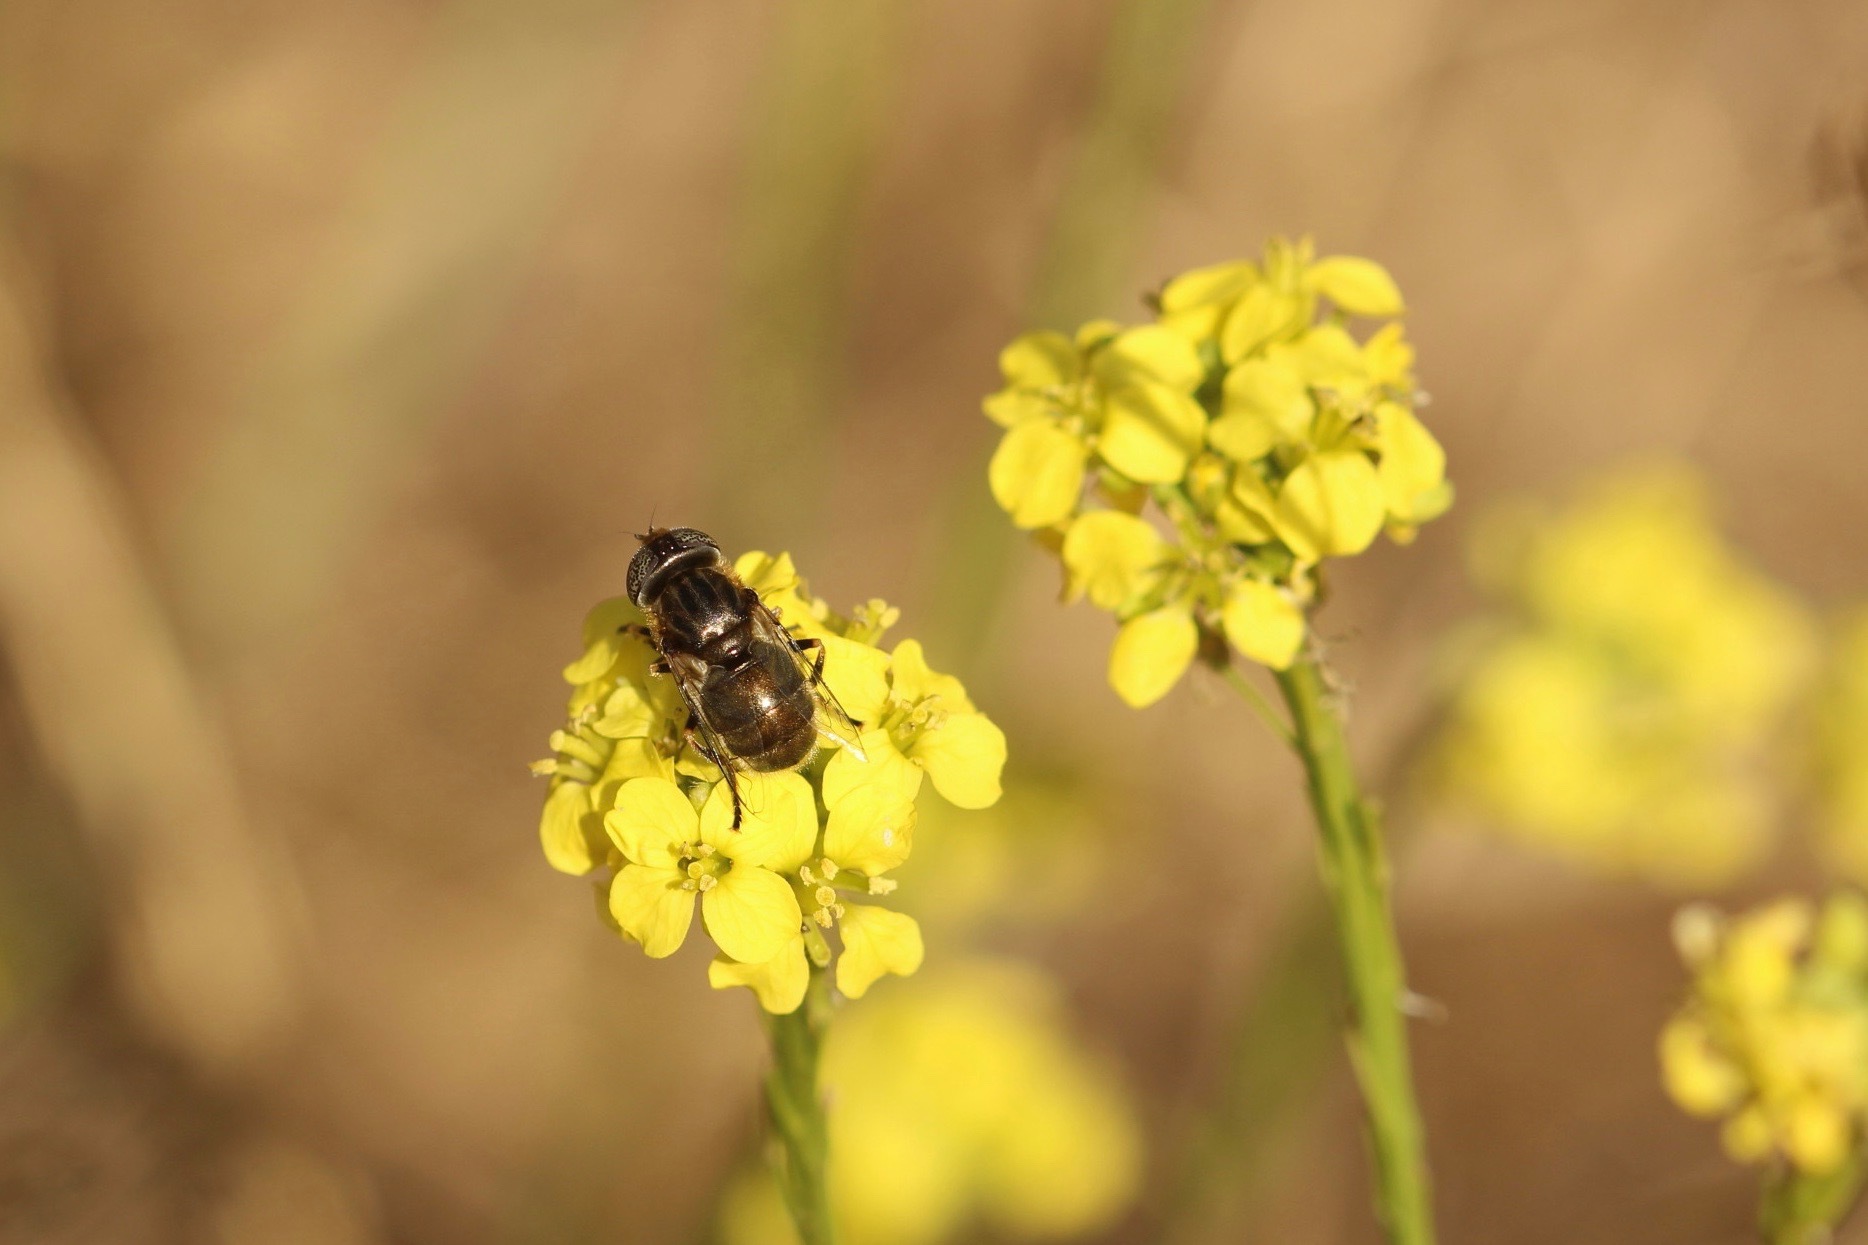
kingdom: Animalia
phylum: Arthropoda
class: Insecta
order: Diptera
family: Syrphidae
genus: Eristalinus
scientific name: Eristalinus aeneus
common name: Syrphid fly
